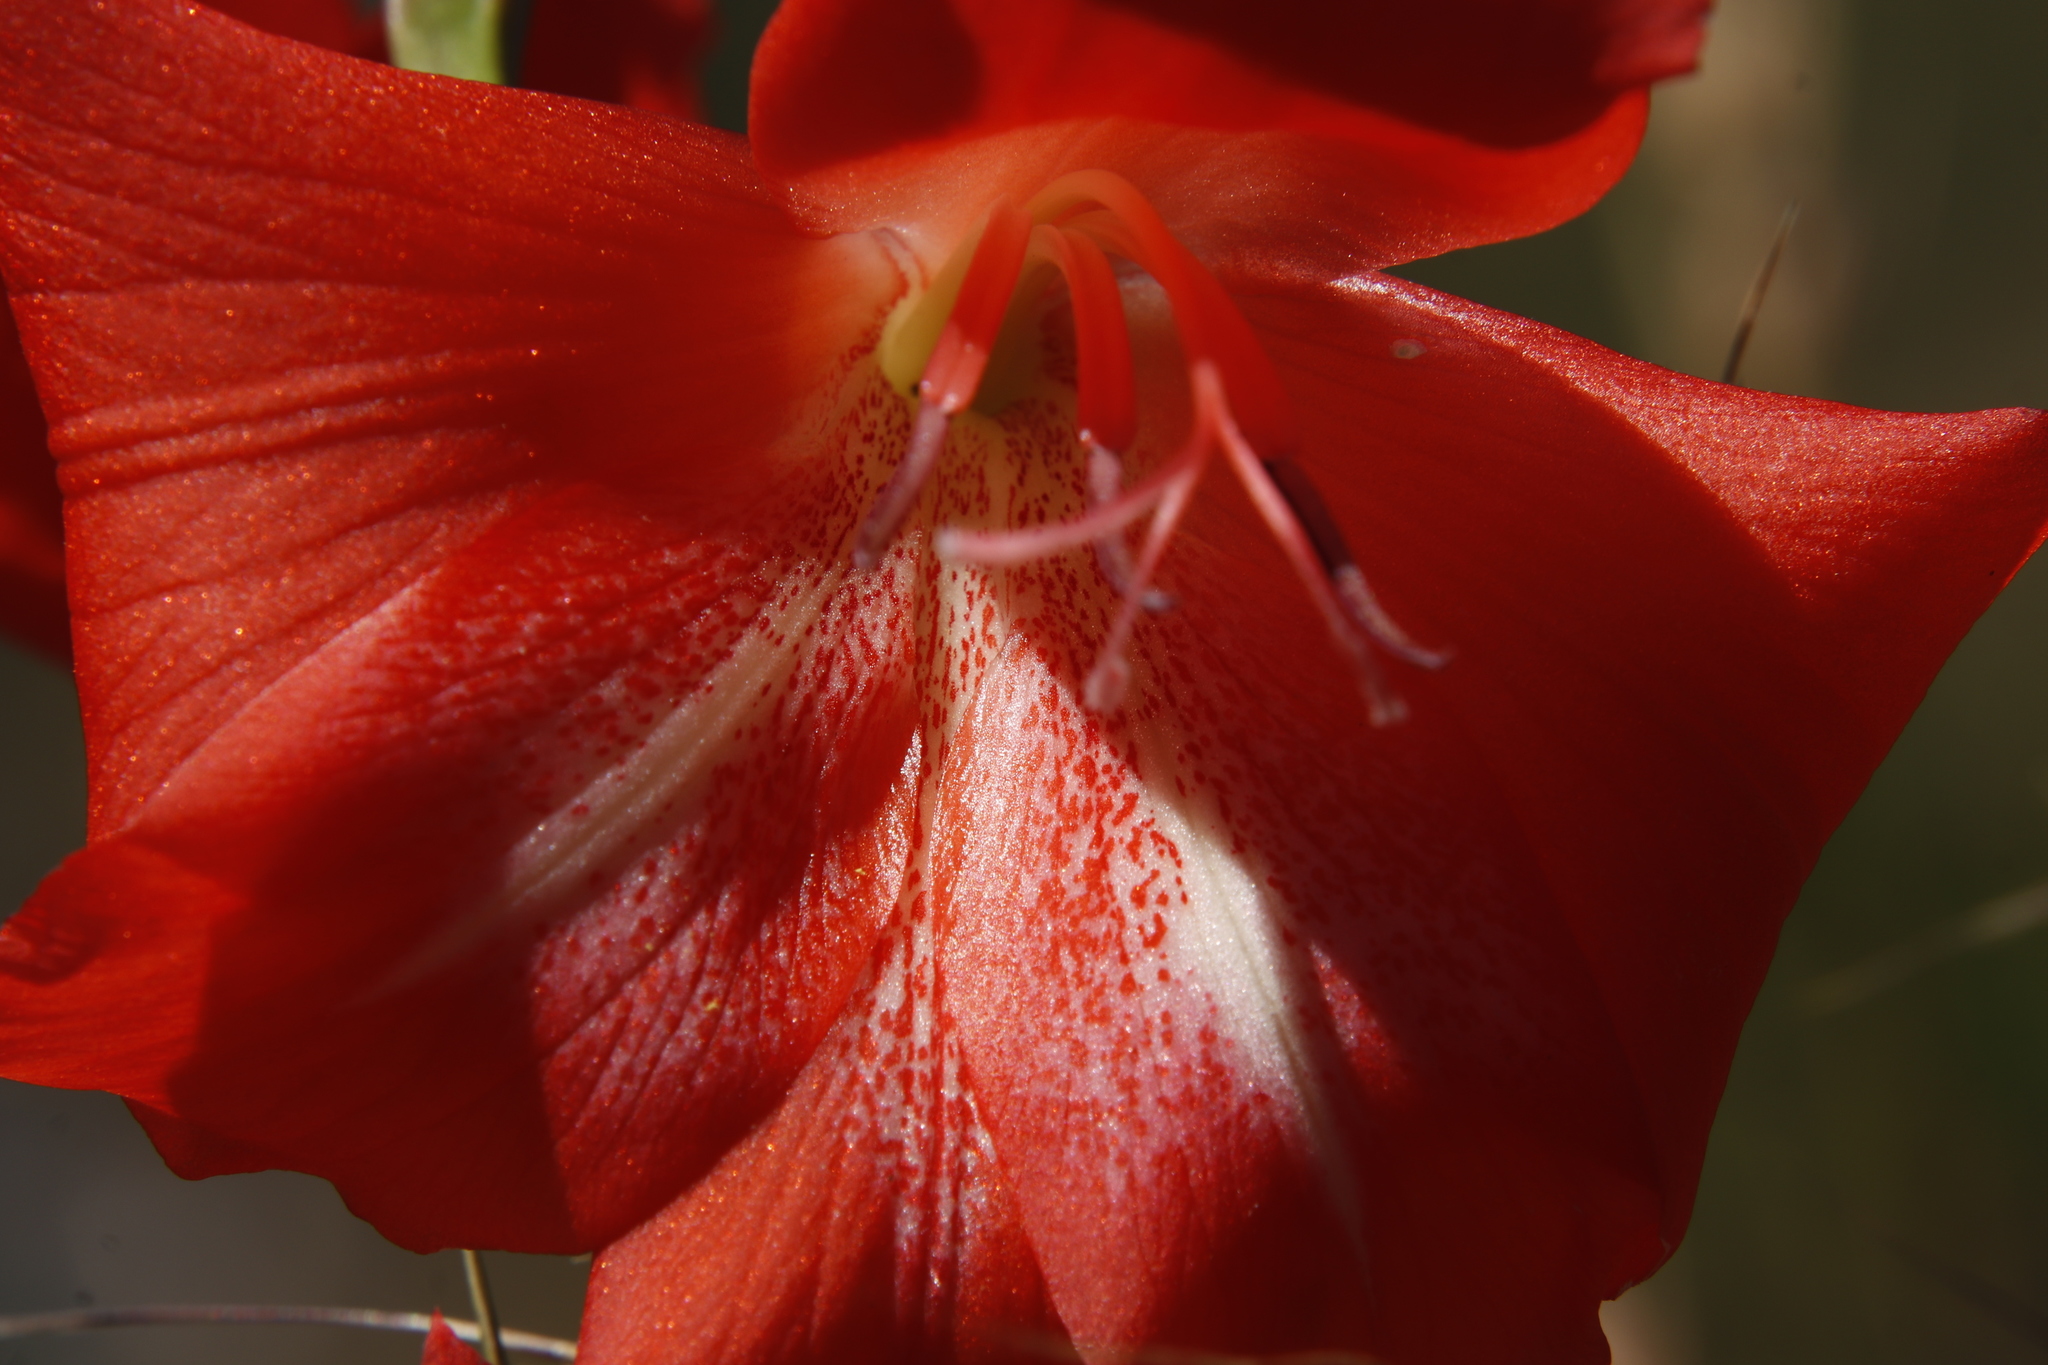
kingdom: Plantae
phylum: Tracheophyta
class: Liliopsida
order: Asparagales
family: Iridaceae
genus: Gladiolus
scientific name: Gladiolus saundersii
